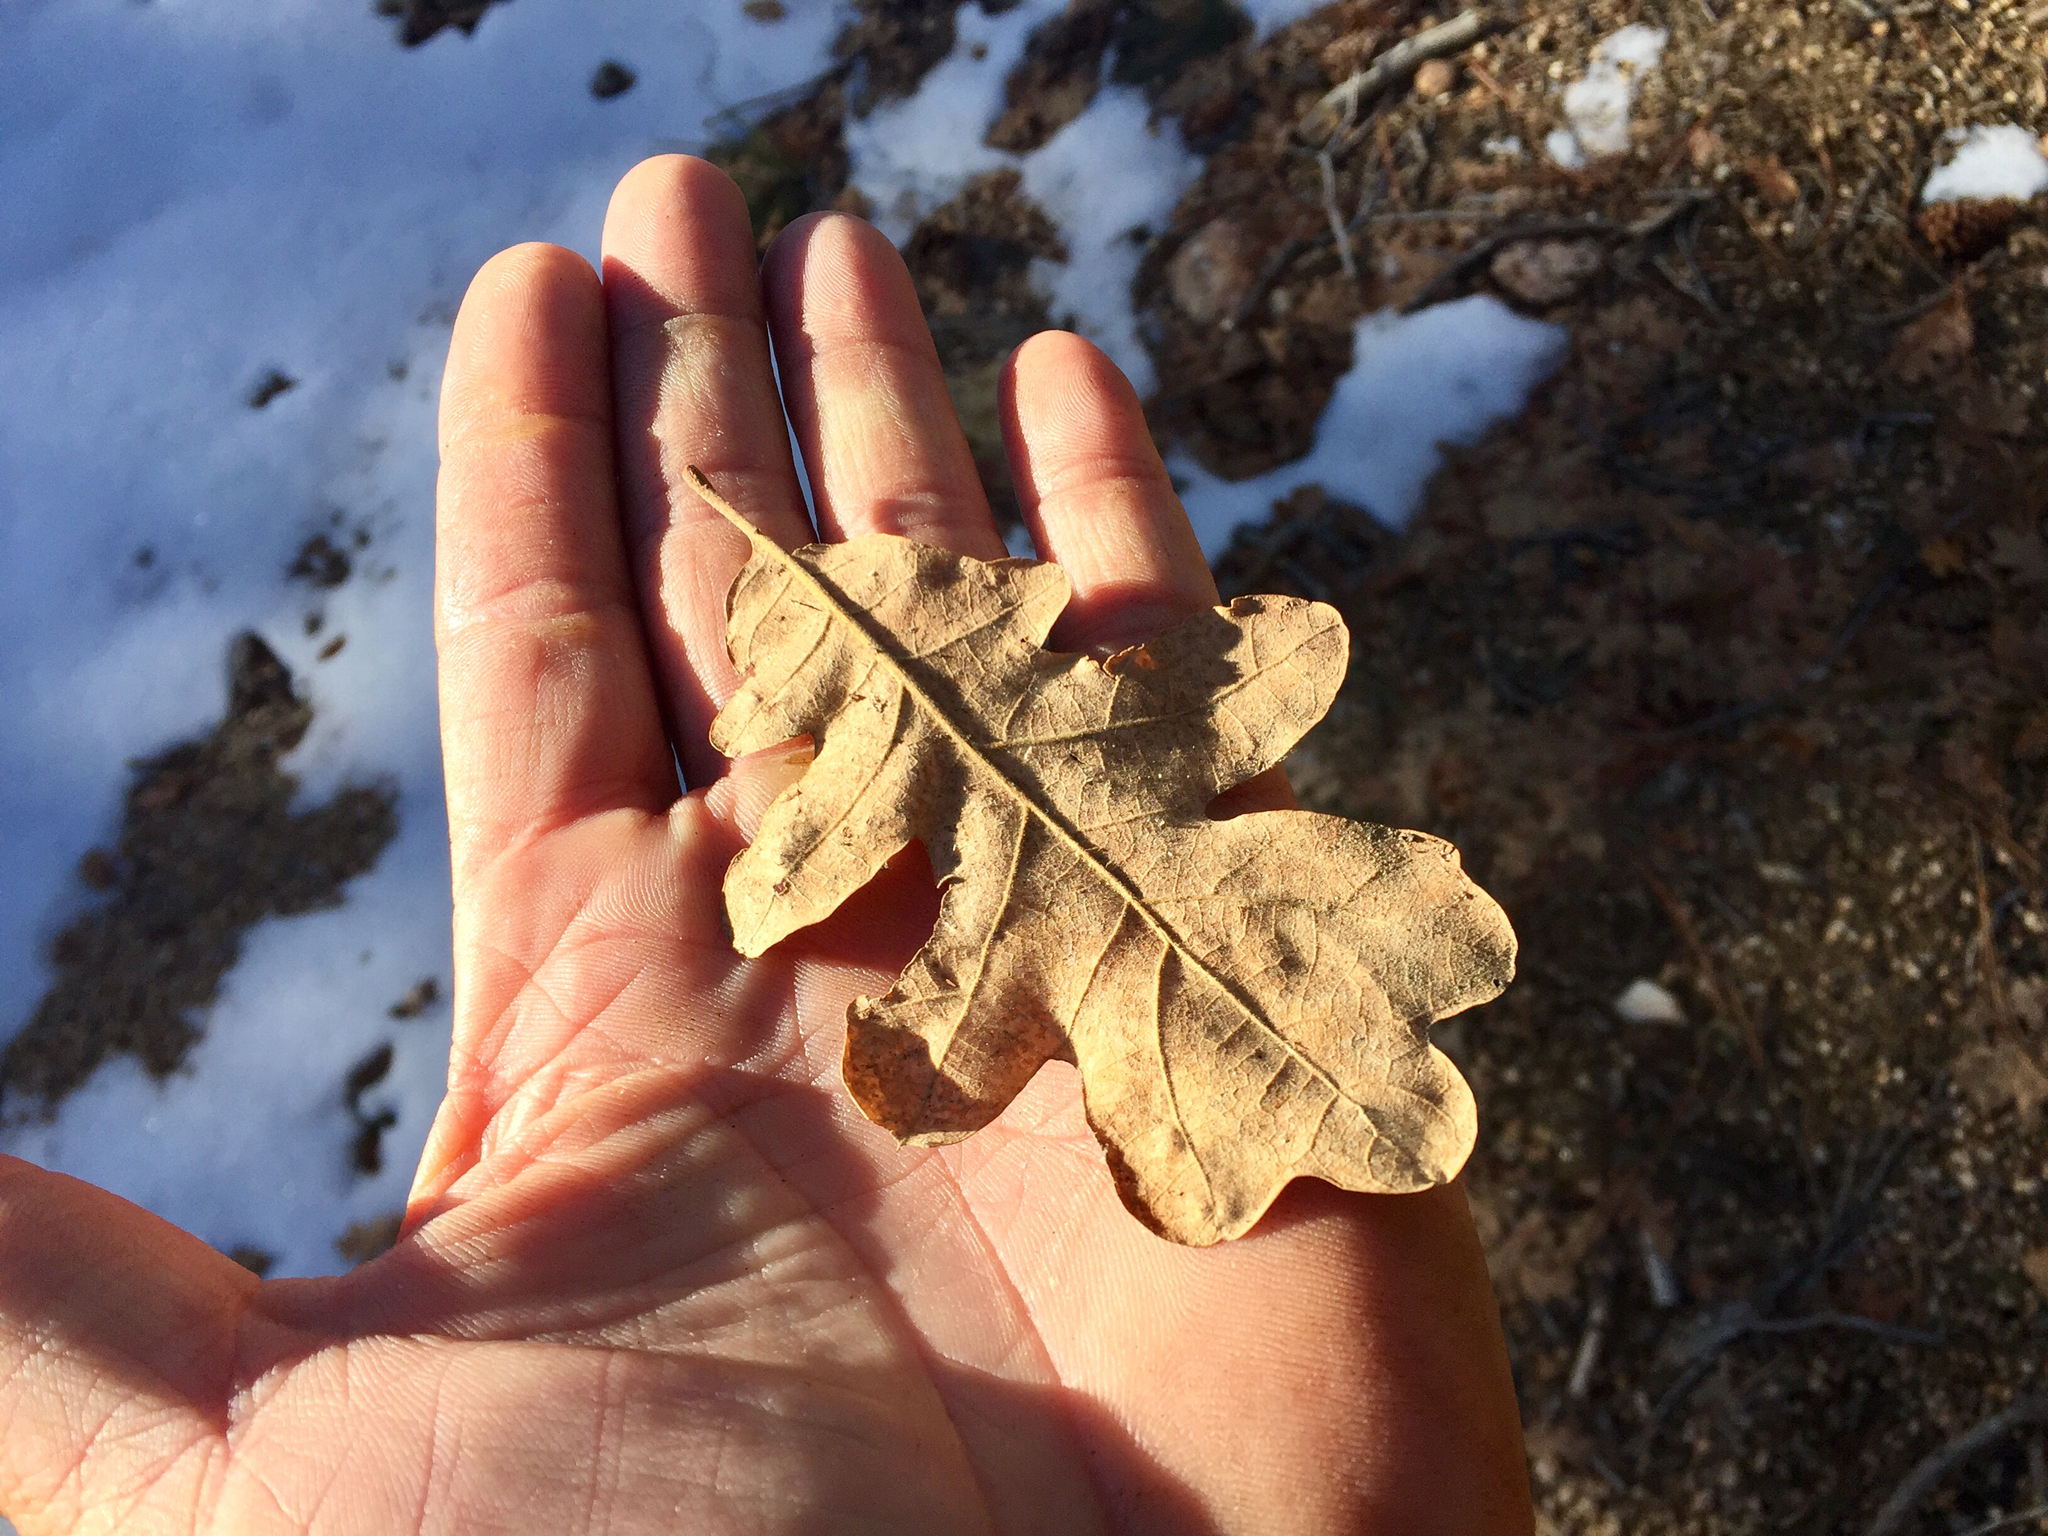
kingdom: Plantae
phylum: Tracheophyta
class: Magnoliopsida
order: Fagales
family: Fagaceae
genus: Quercus
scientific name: Quercus gambelii
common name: Gambel oak
